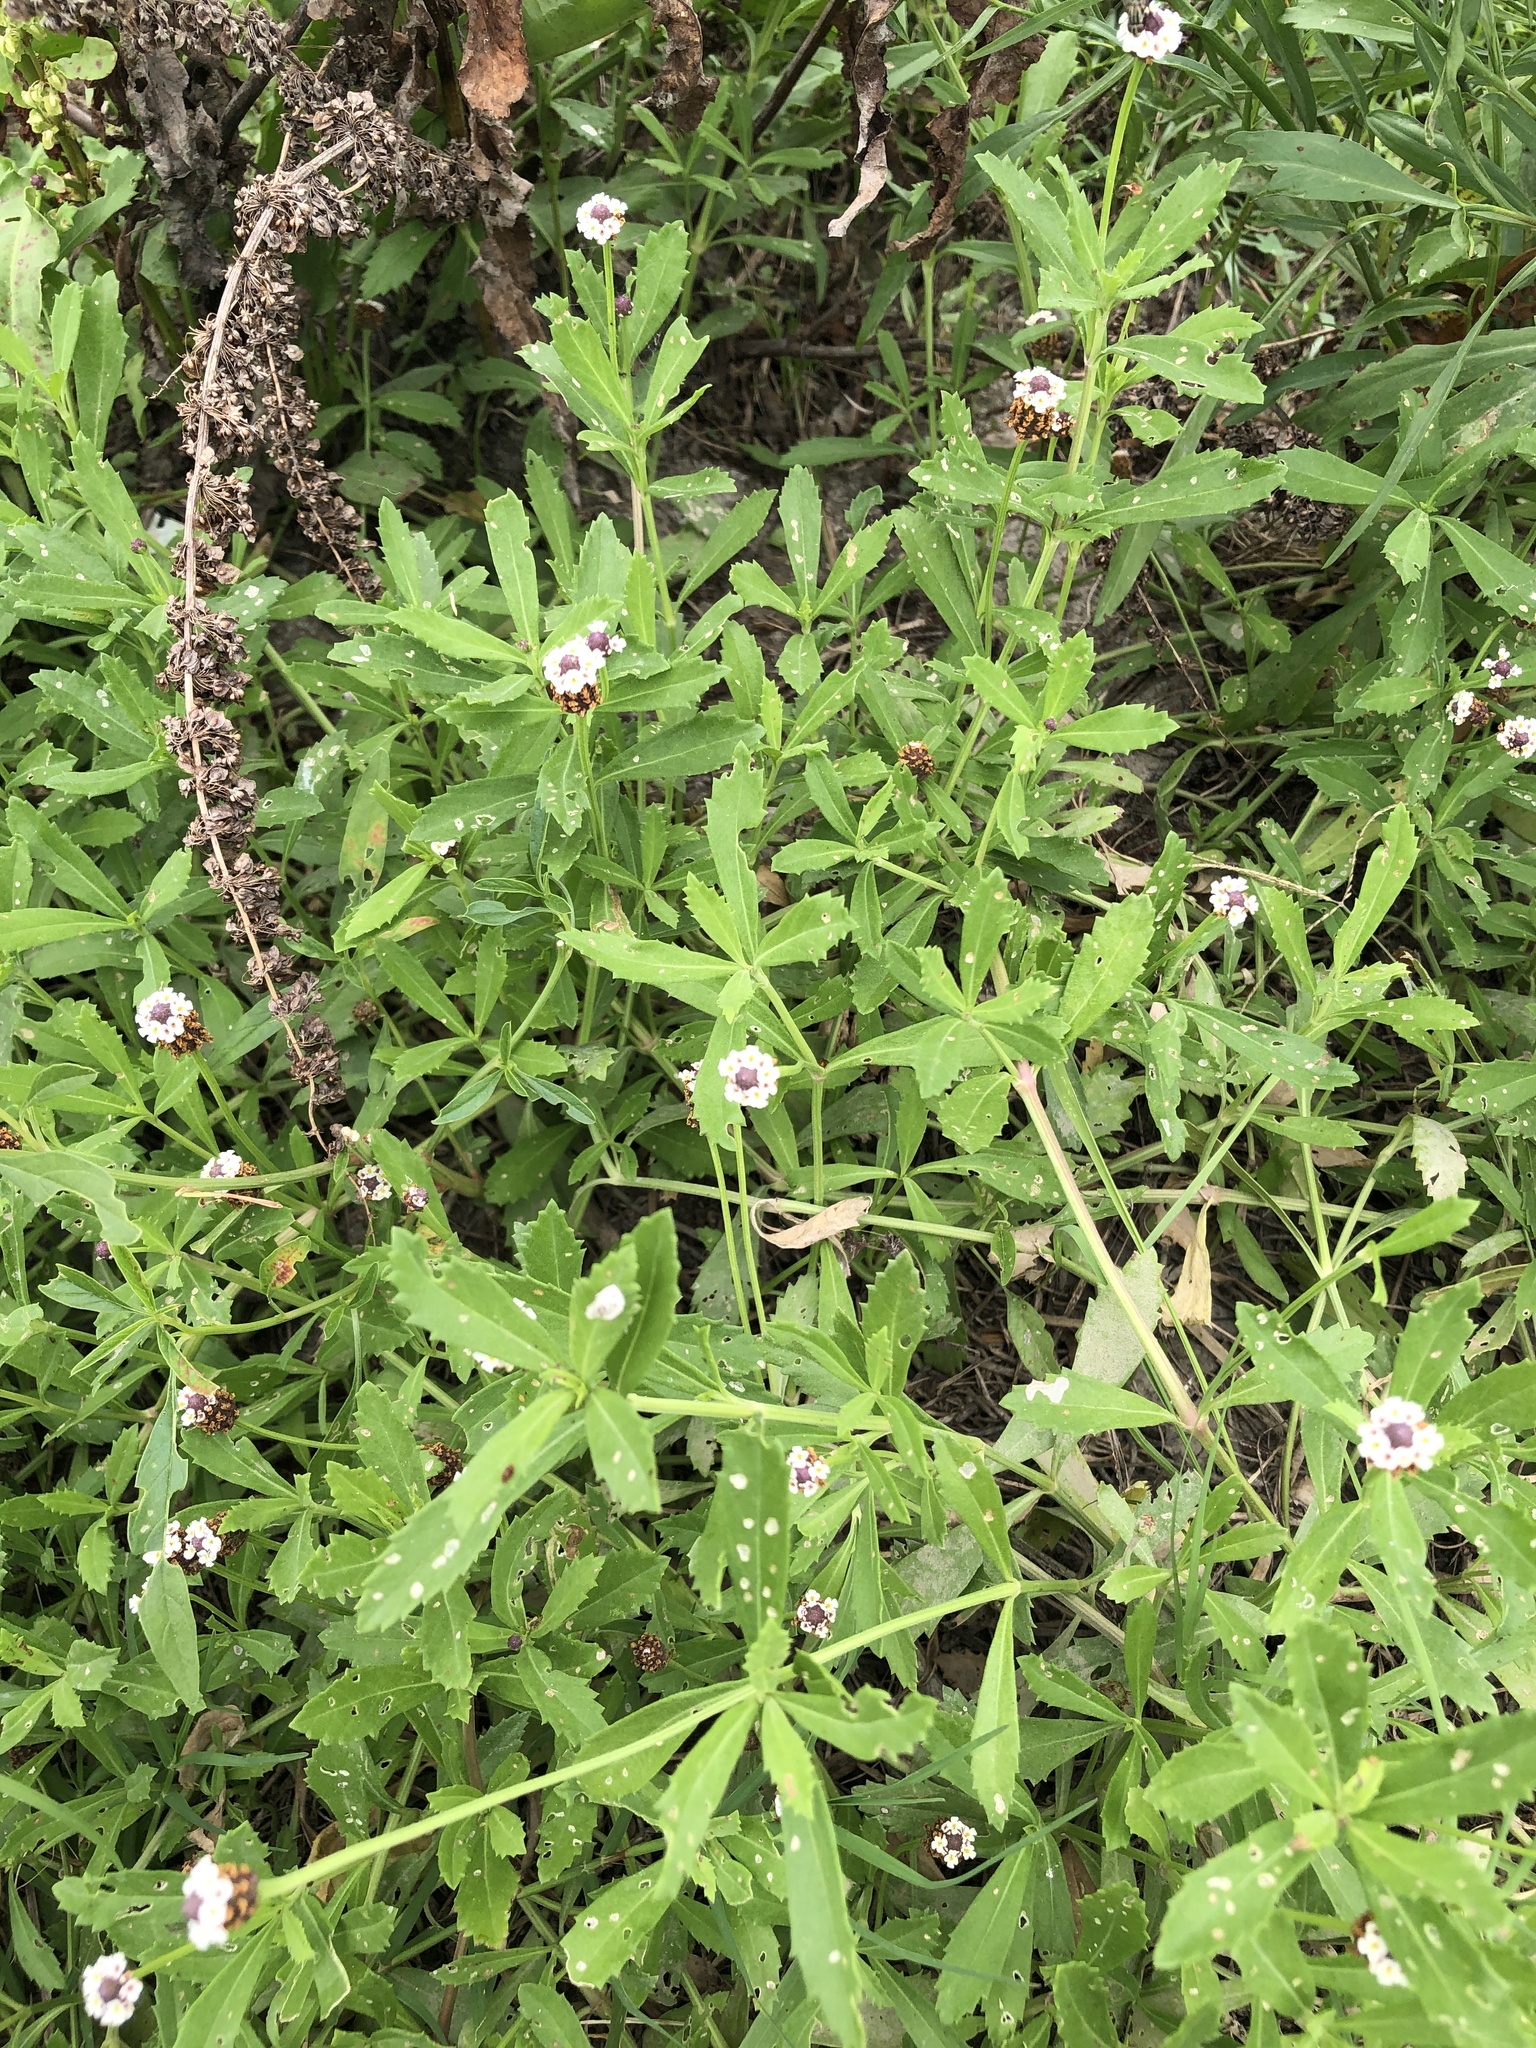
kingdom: Plantae
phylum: Tracheophyta
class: Magnoliopsida
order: Lamiales
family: Verbenaceae
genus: Phyla
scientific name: Phyla nodiflora
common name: Frogfruit
